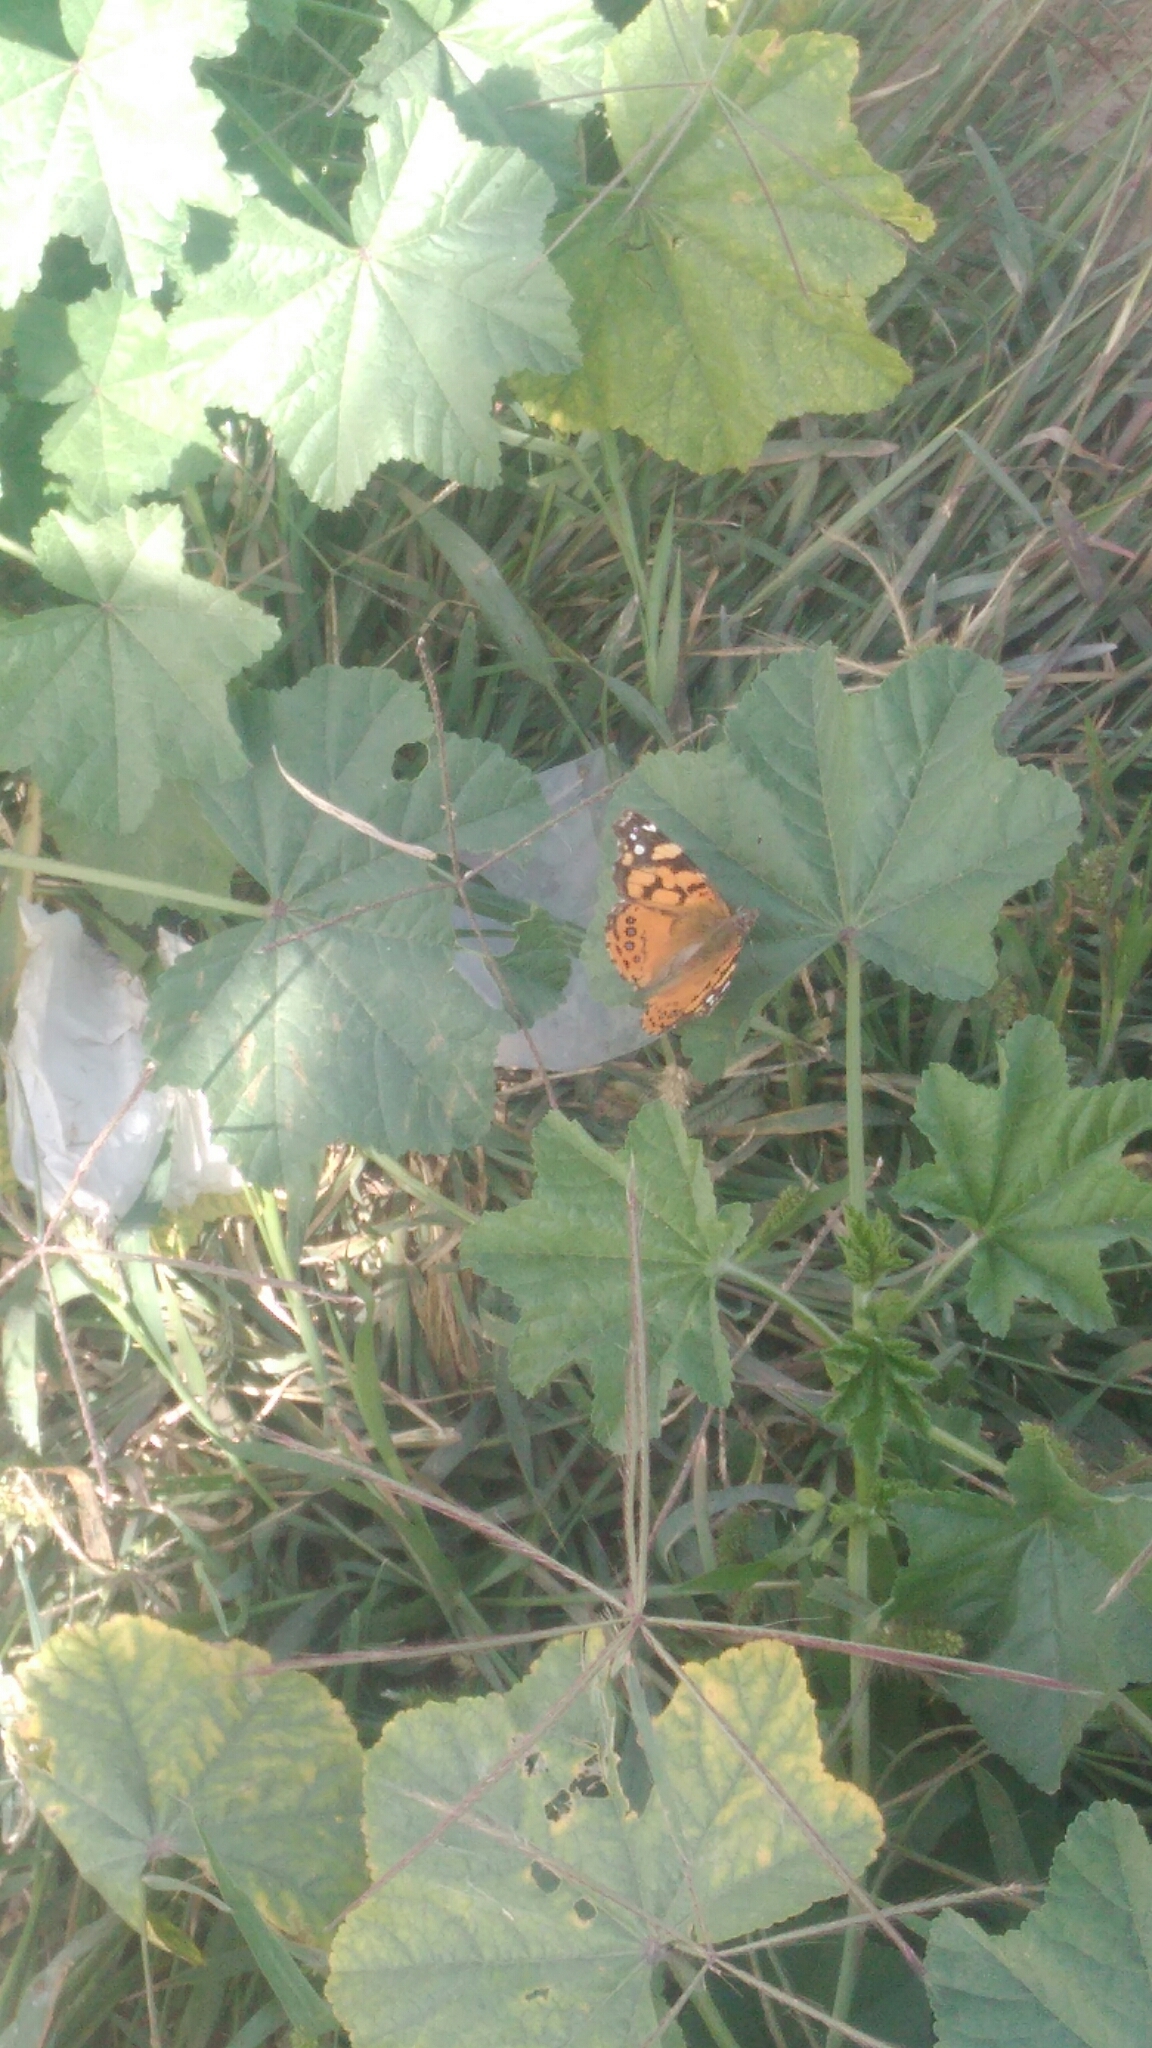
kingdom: Animalia
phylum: Arthropoda
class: Insecta
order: Lepidoptera
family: Nymphalidae
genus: Vanessa
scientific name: Vanessa annabella
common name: West coast lady
